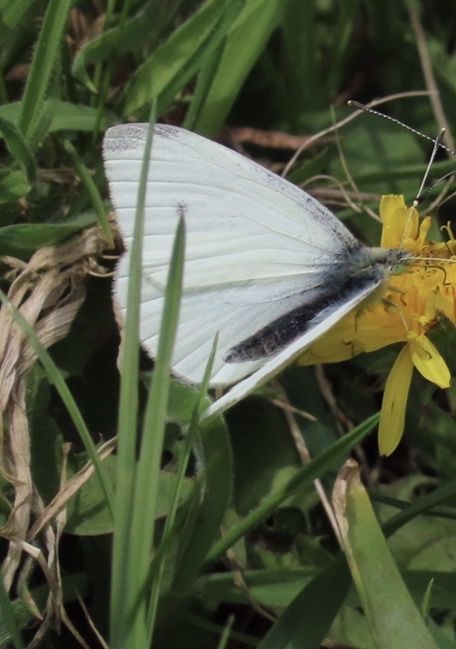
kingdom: Animalia
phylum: Arthropoda
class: Insecta
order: Lepidoptera
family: Pieridae
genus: Pieris
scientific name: Pieris rapae
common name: Small white
